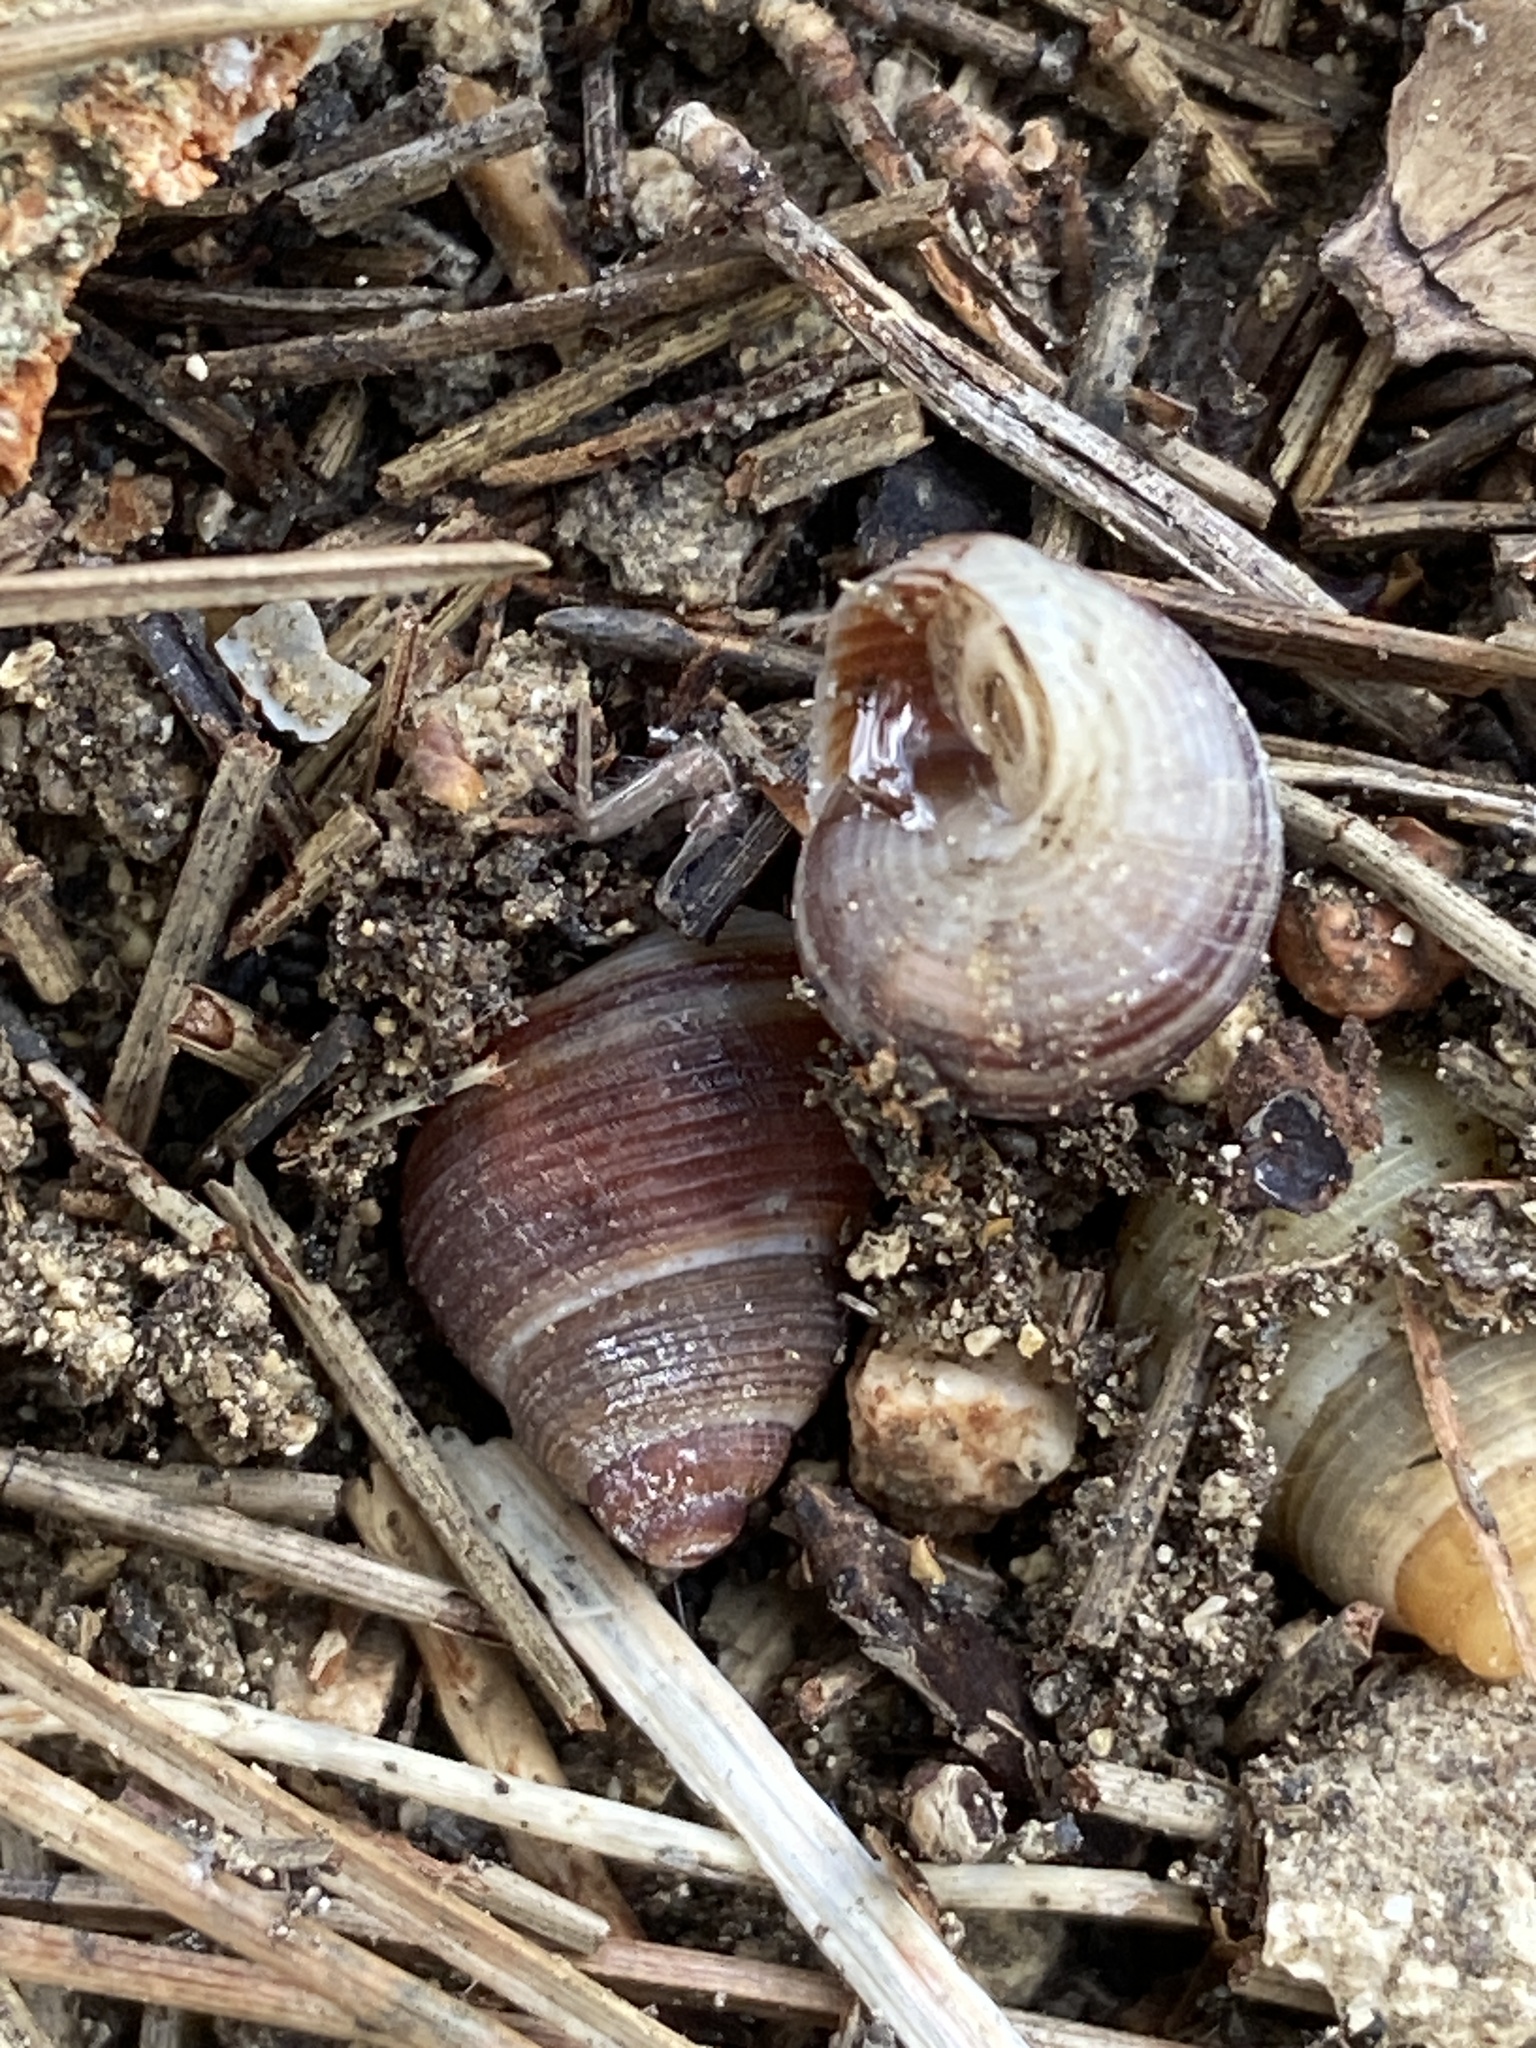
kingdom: Animalia
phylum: Mollusca
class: Gastropoda
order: Littorinimorpha
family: Pomatiidae
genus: Tudorella
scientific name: Tudorella melitensis
